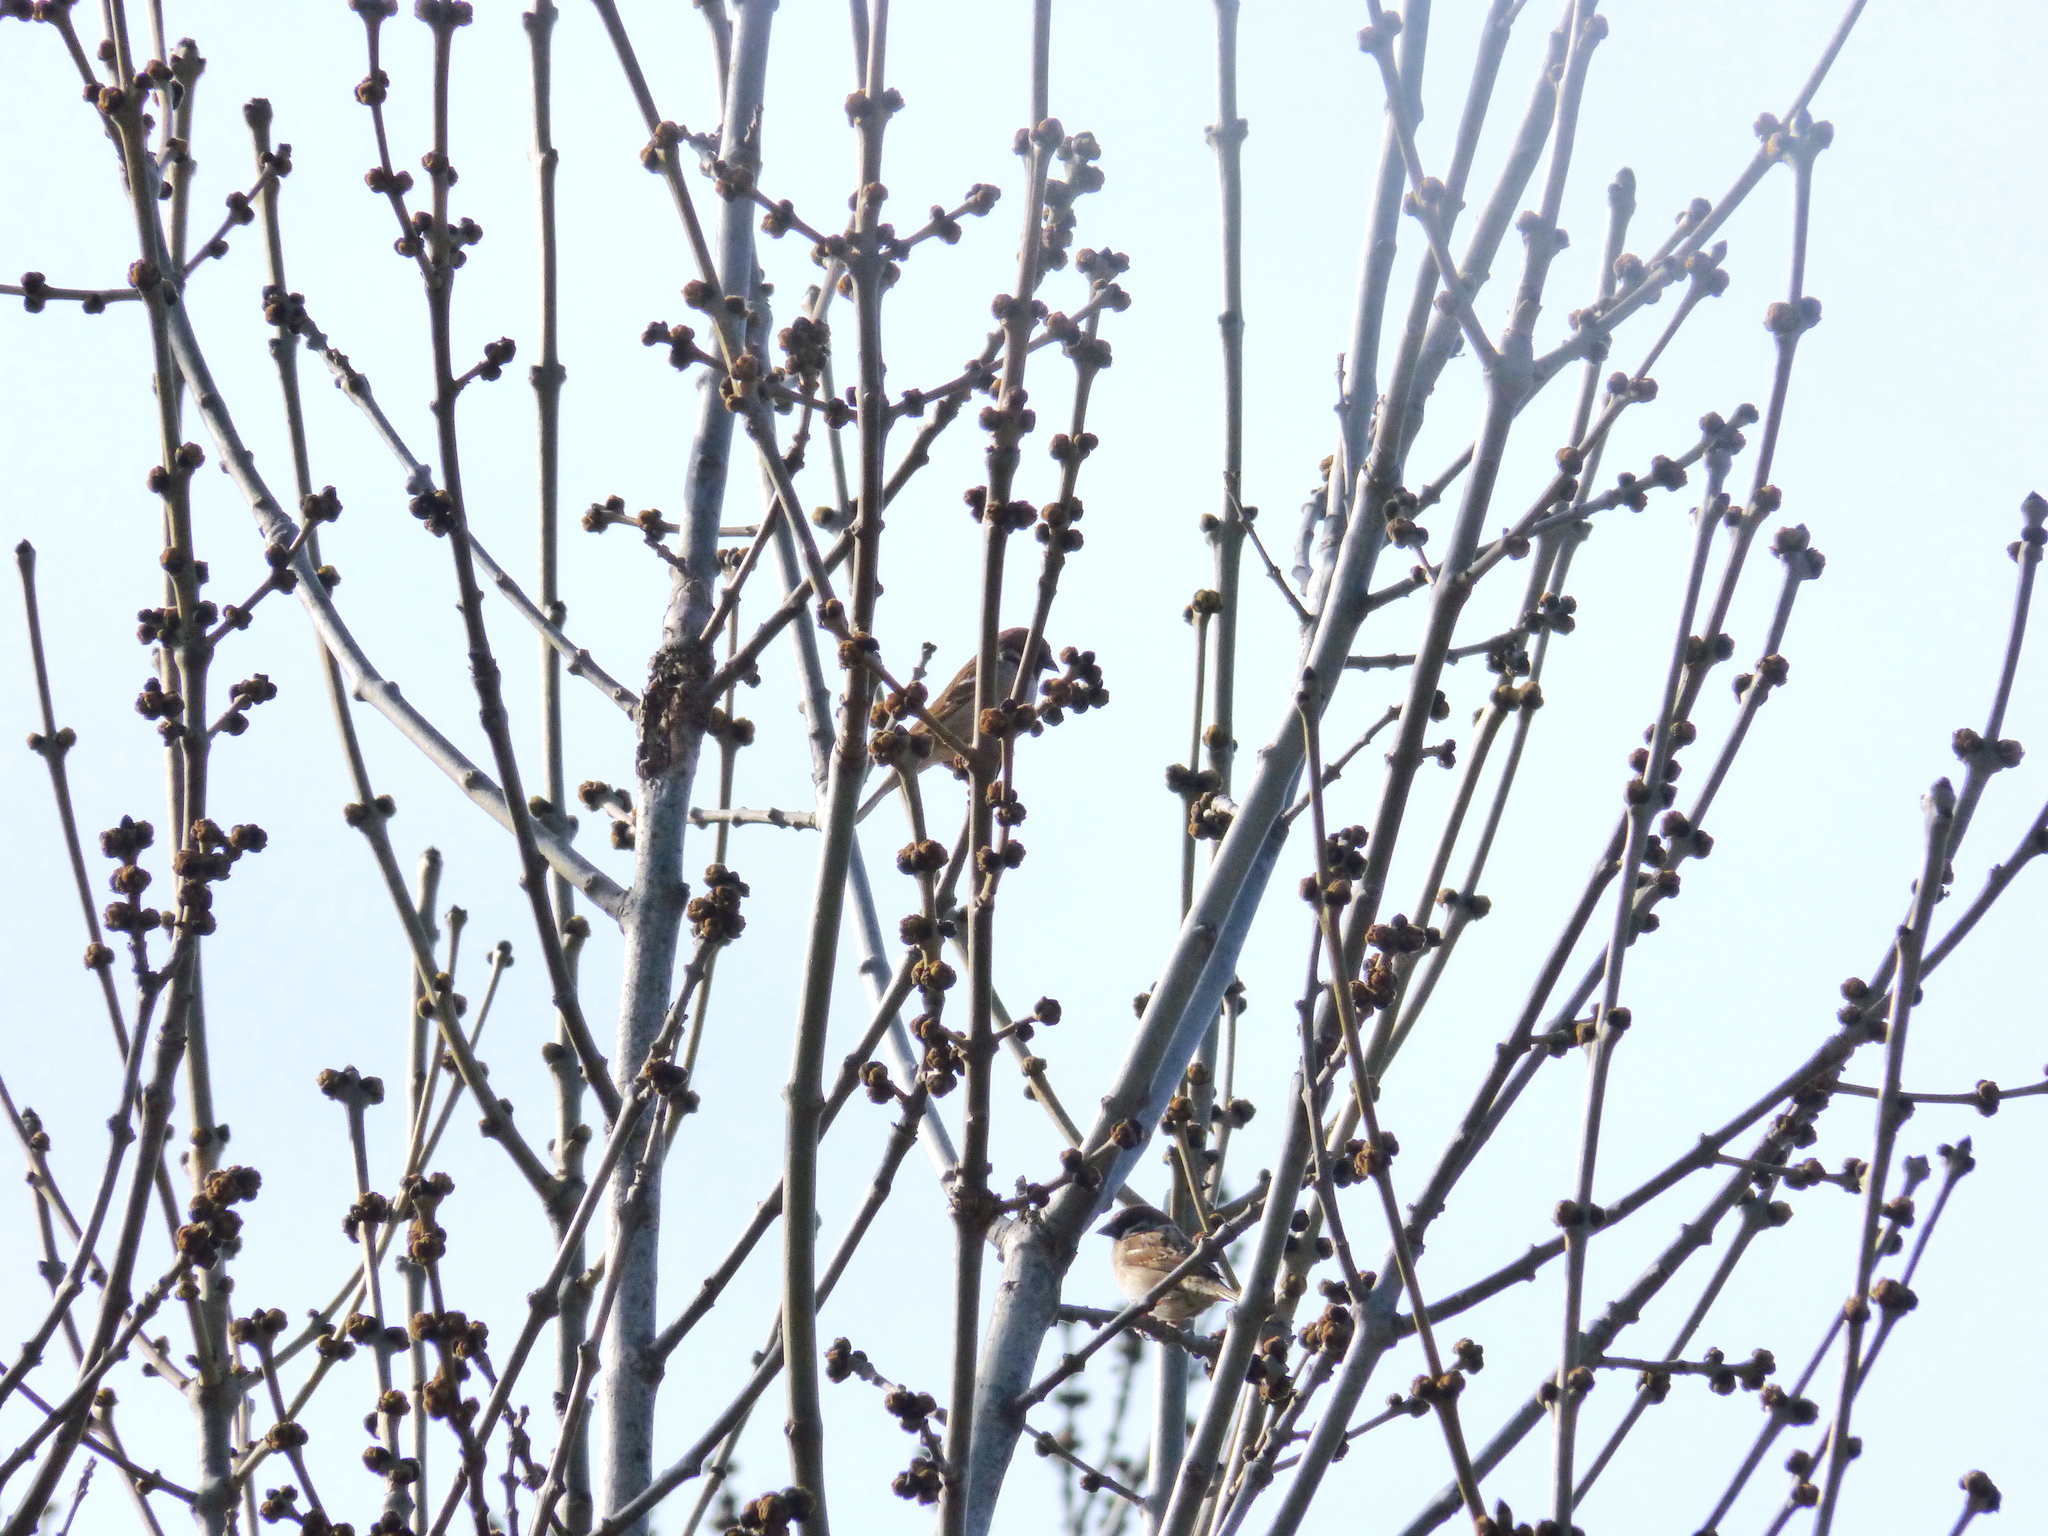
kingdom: Animalia
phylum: Chordata
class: Aves
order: Passeriformes
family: Passeridae
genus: Passer
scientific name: Passer montanus
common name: Eurasian tree sparrow
